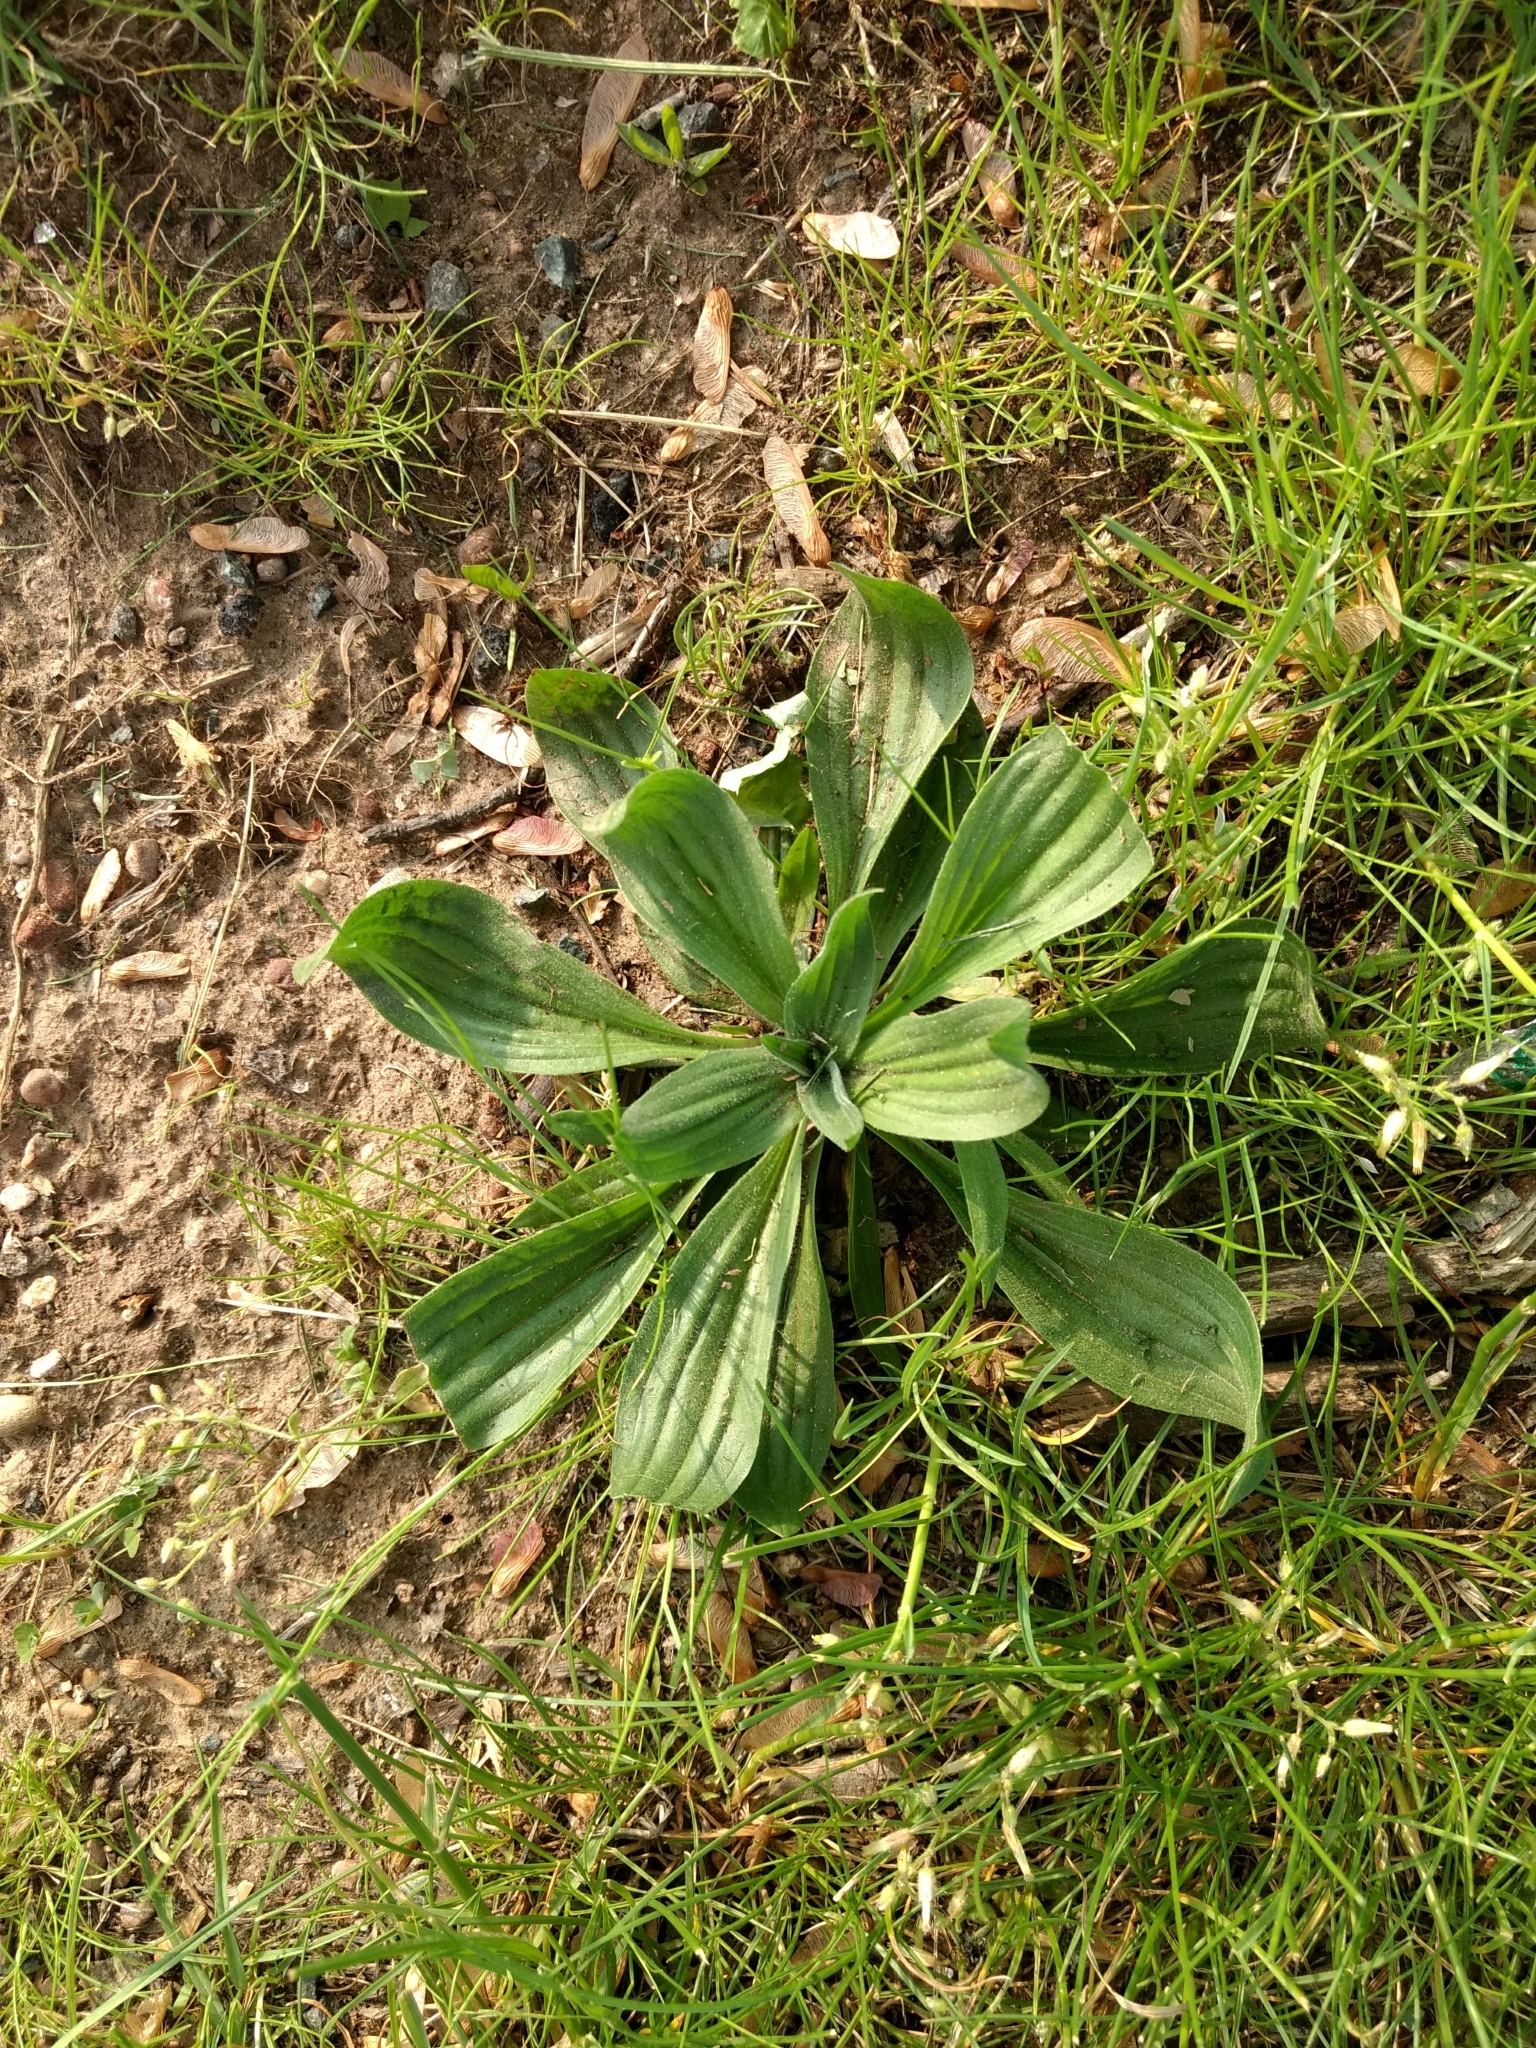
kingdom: Plantae
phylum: Tracheophyta
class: Magnoliopsida
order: Lamiales
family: Plantaginaceae
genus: Plantago
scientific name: Plantago lanceolata
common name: Ribwort plantain
